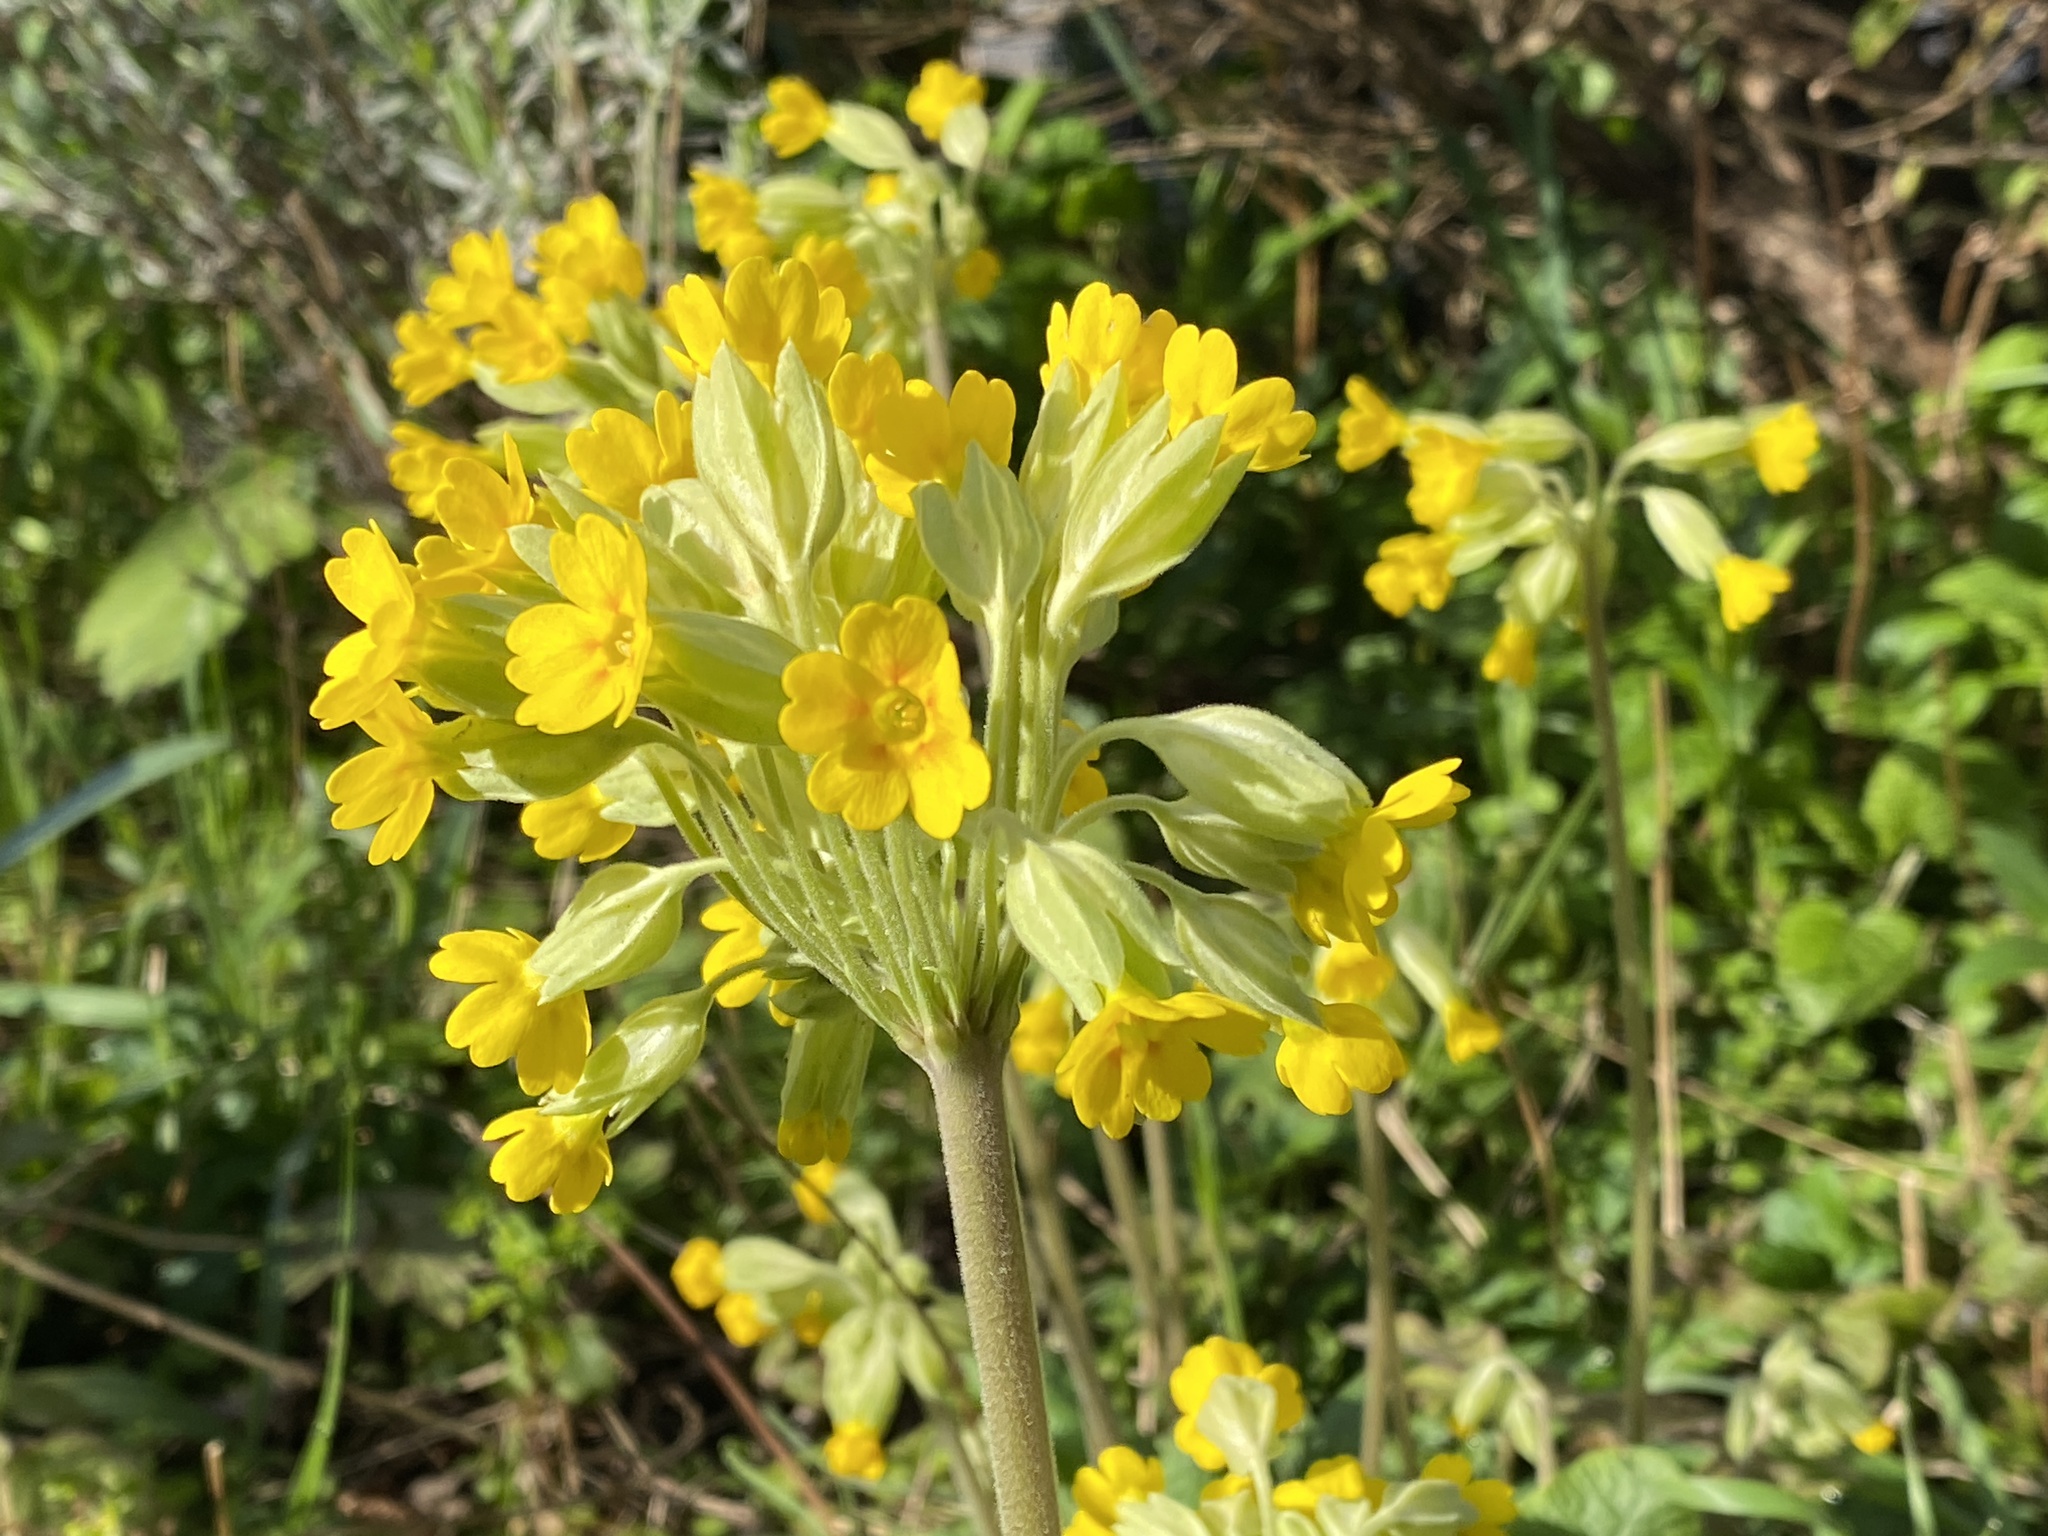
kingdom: Plantae
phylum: Tracheophyta
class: Magnoliopsida
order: Ericales
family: Primulaceae
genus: Primula
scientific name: Primula veris
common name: Cowslip
